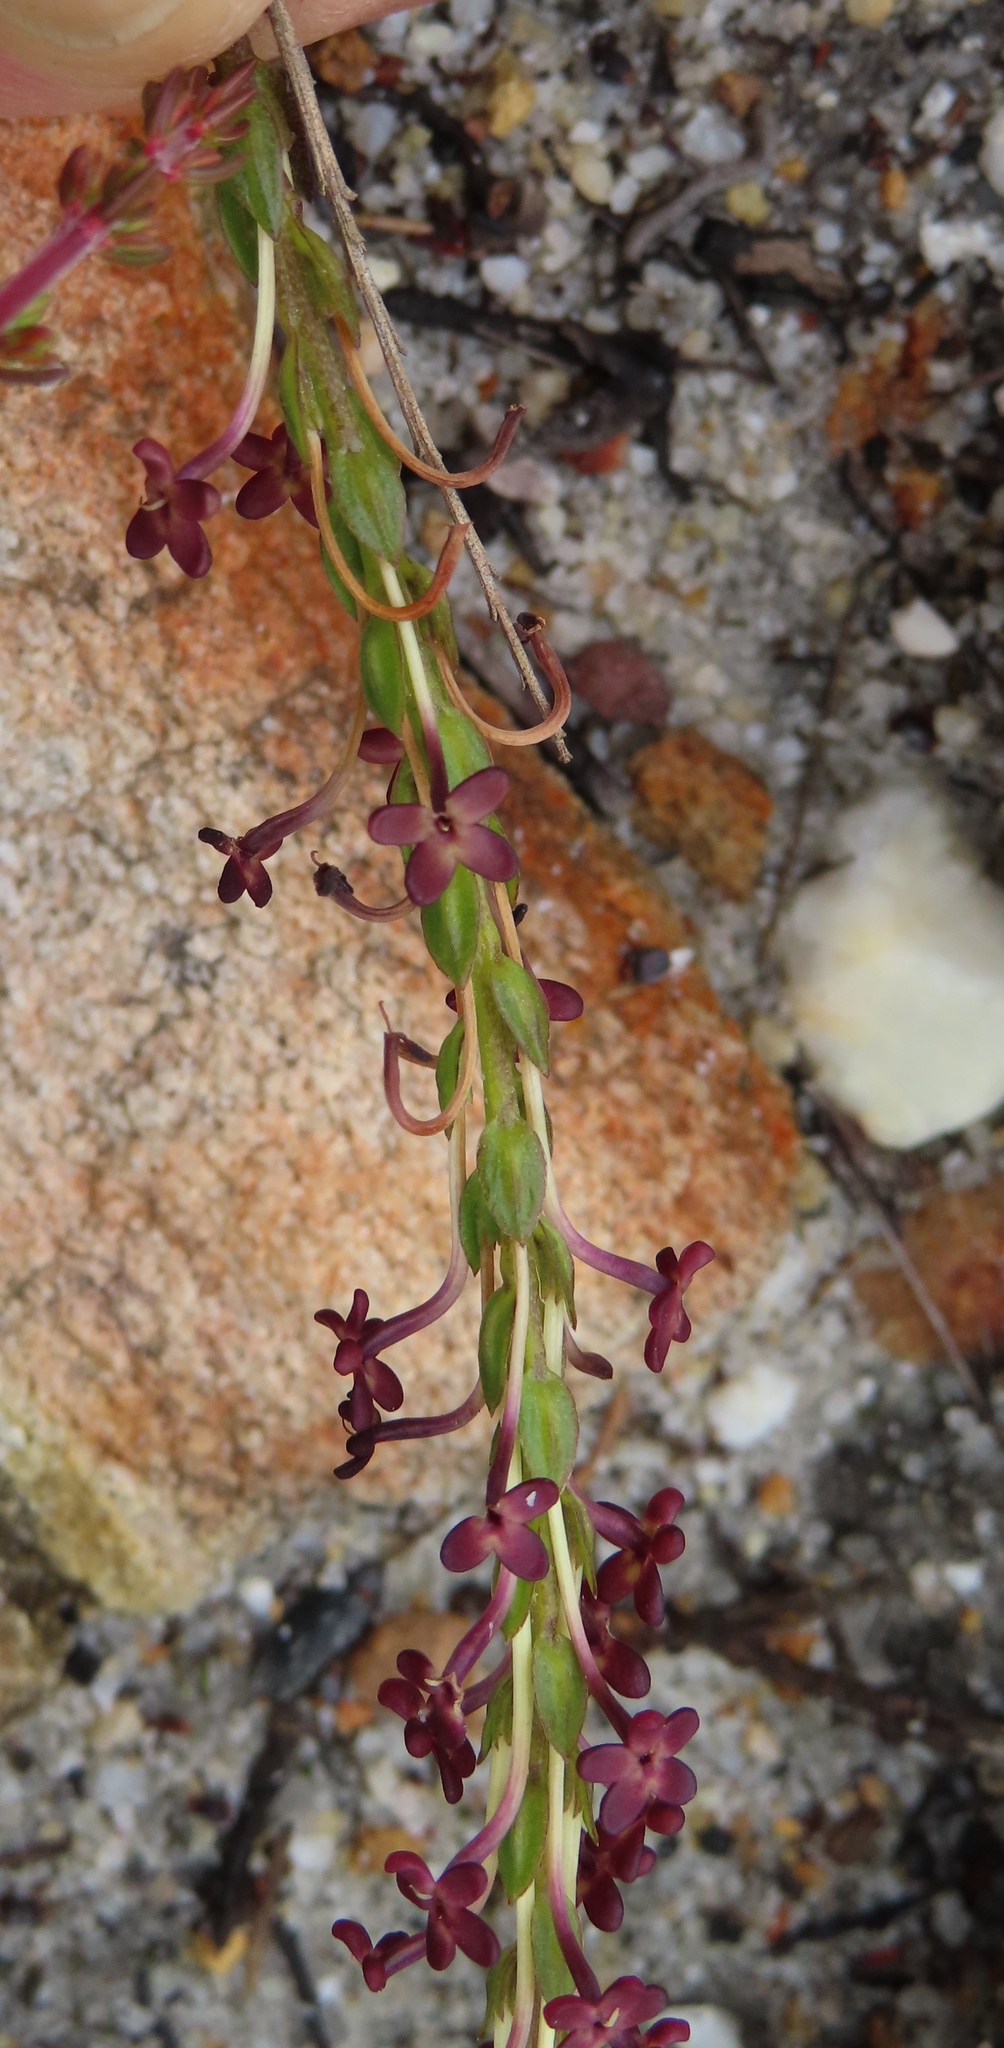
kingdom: Plantae
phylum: Tracheophyta
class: Magnoliopsida
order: Lamiales
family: Scrophulariaceae
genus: Microdon
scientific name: Microdon dubius
